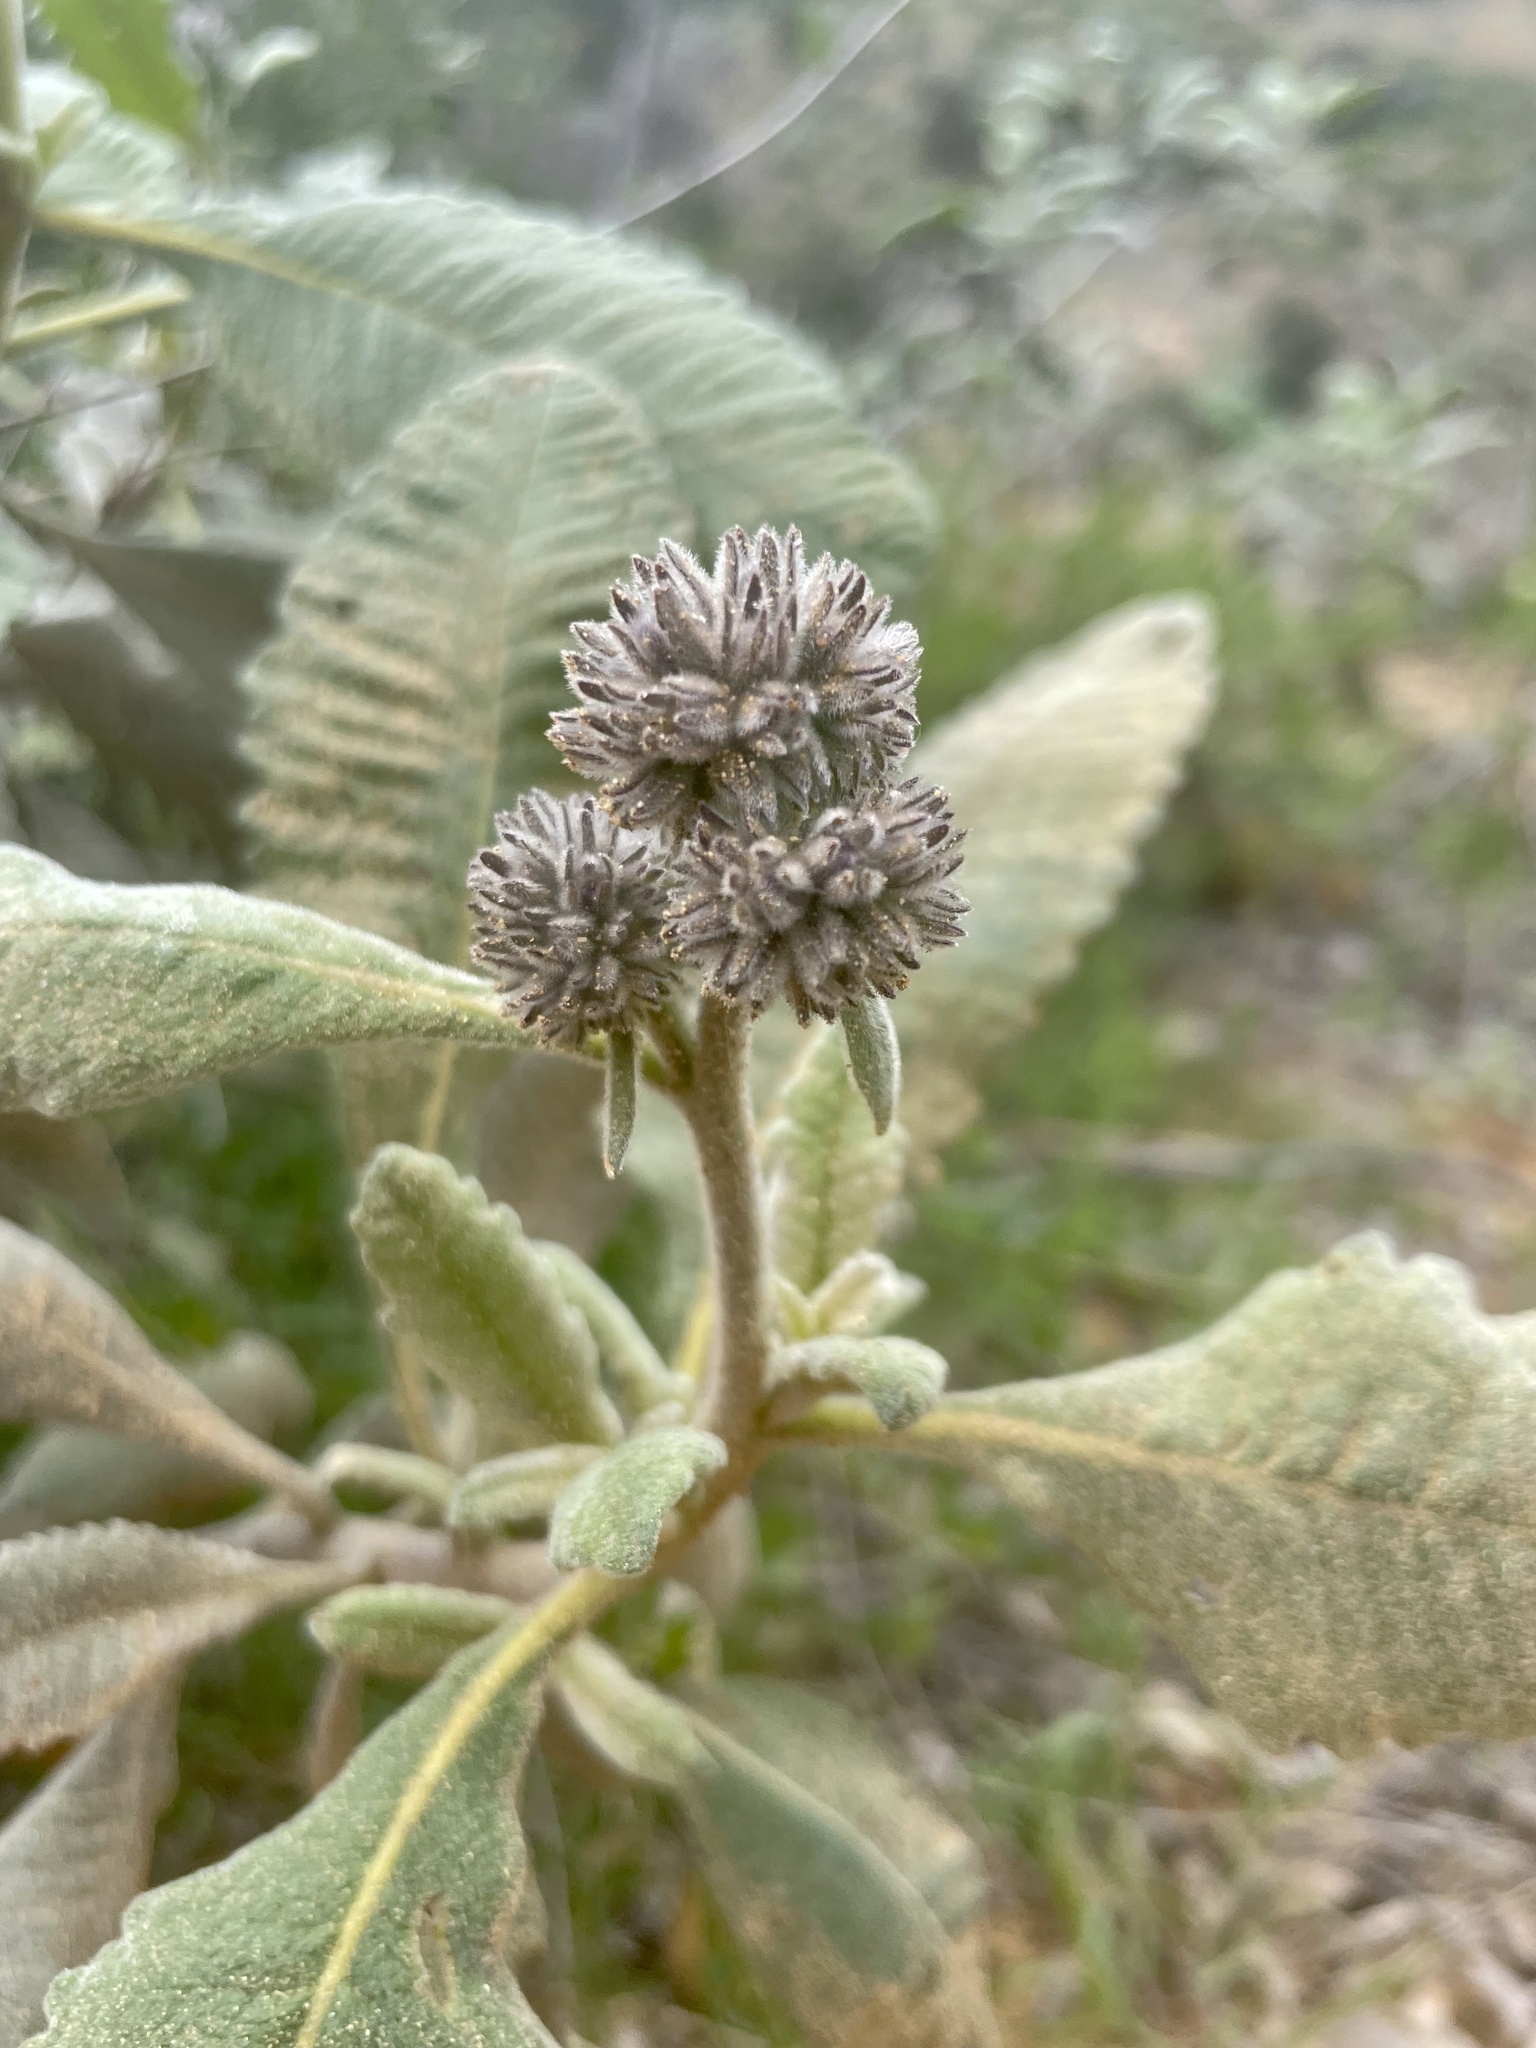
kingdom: Plantae
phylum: Tracheophyta
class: Magnoliopsida
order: Boraginales
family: Namaceae
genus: Eriodictyon
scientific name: Eriodictyon crassifolium
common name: Thick-leaf yerba-santa
